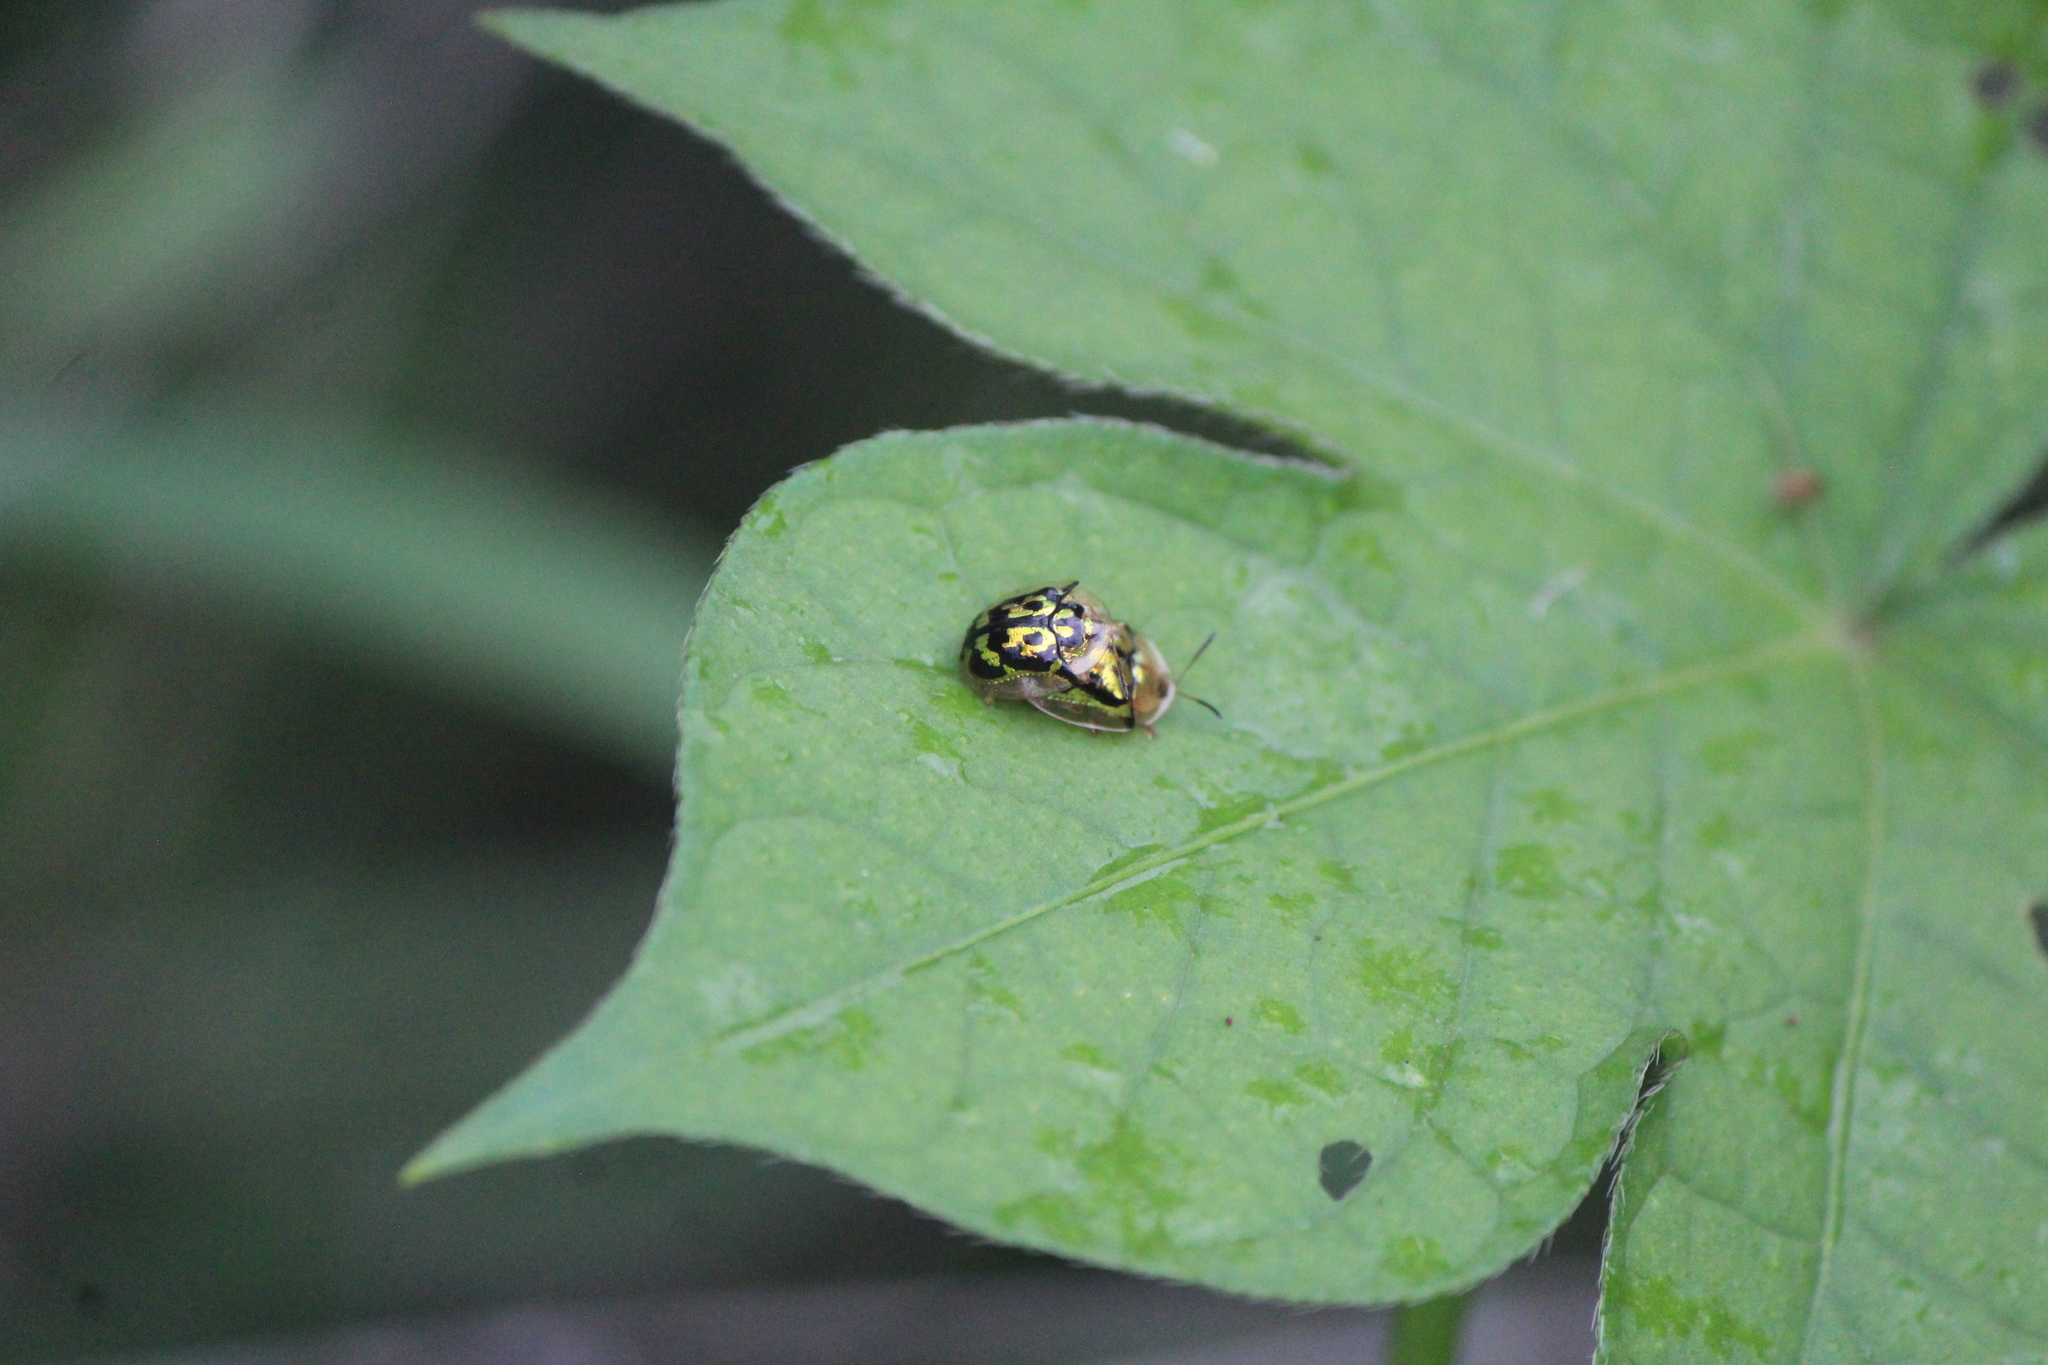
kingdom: Animalia
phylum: Arthropoda
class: Insecta
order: Coleoptera
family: Chrysomelidae
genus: Deloyala
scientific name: Deloyala lecontei
